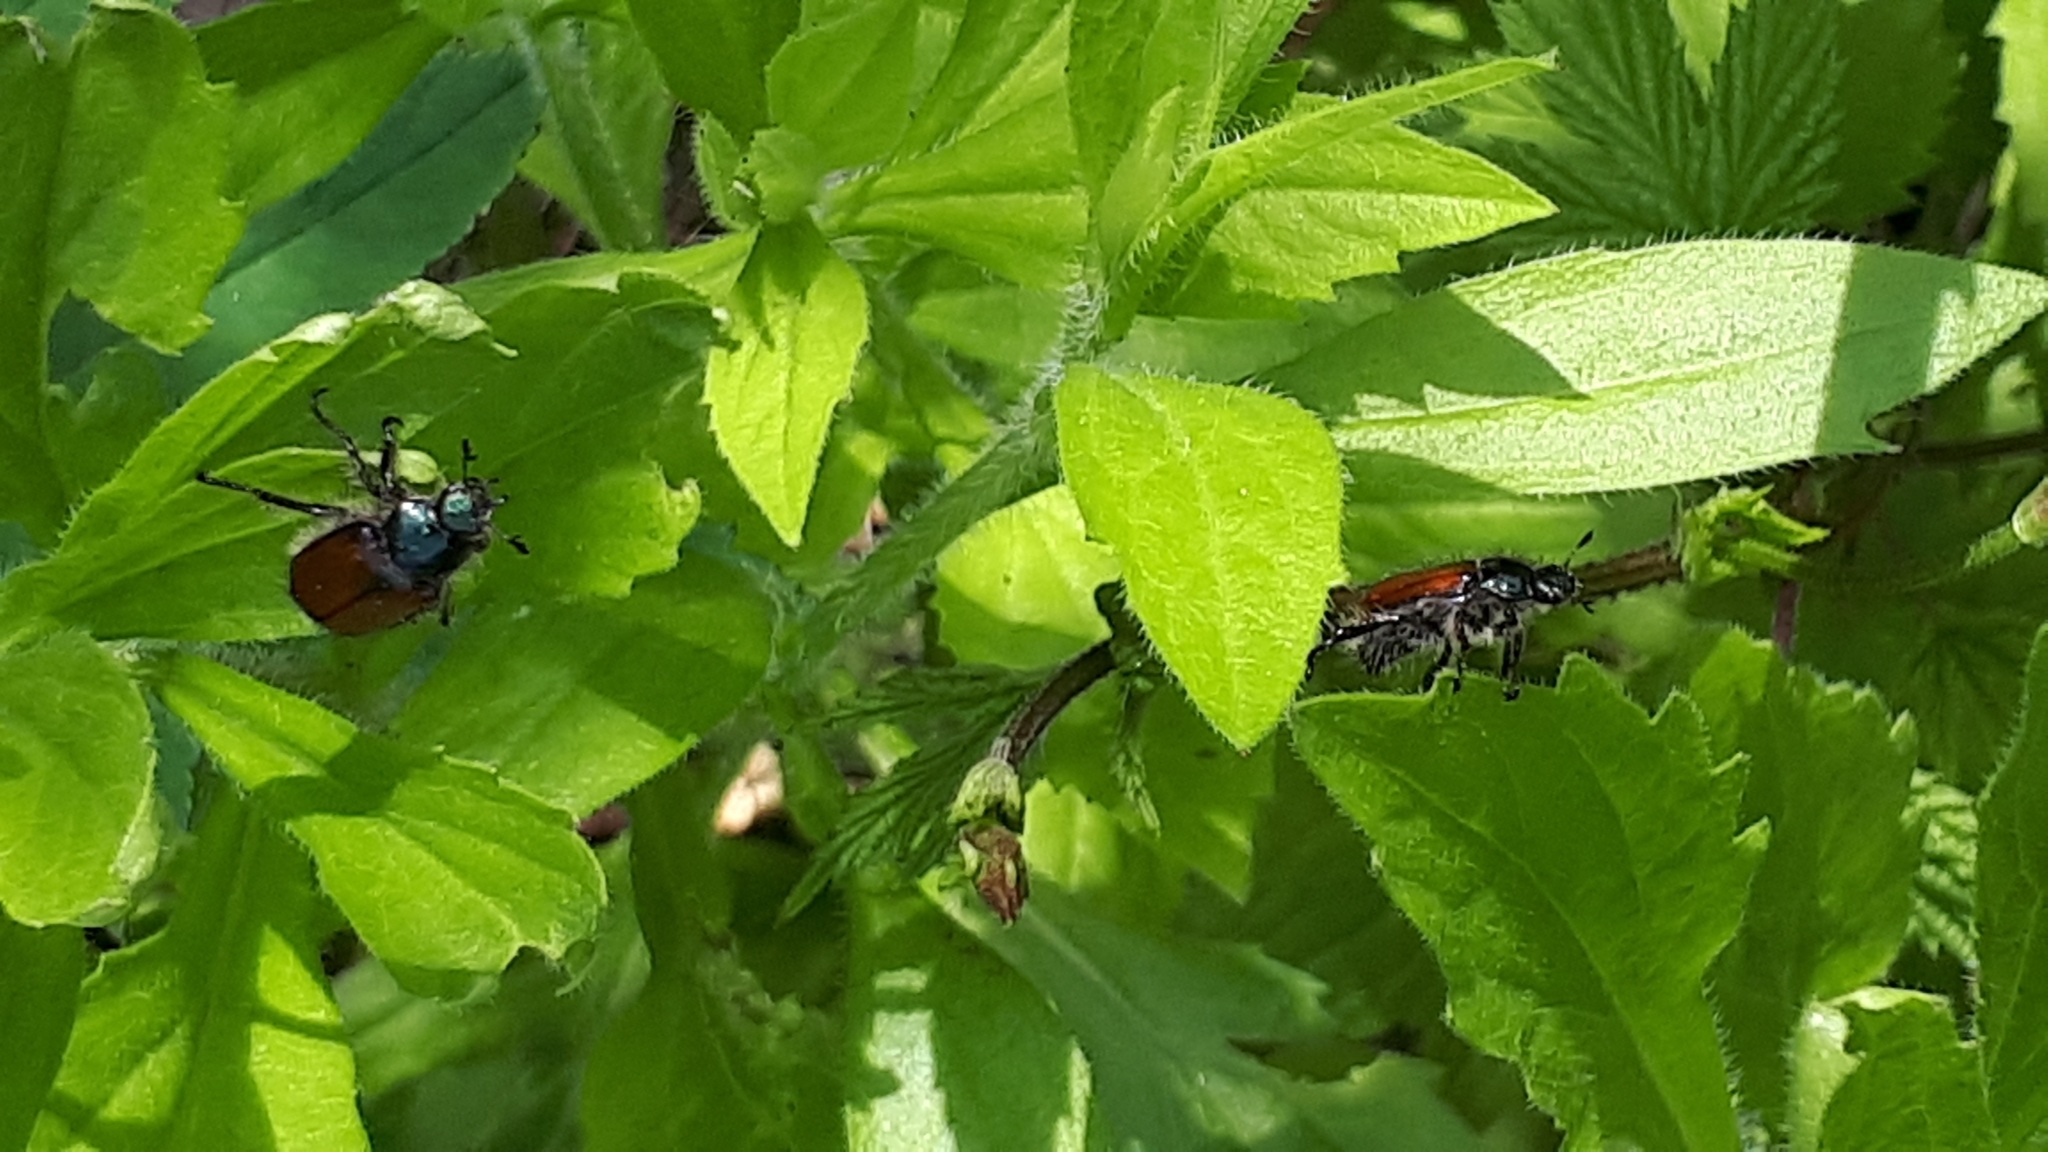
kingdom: Animalia
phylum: Arthropoda
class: Insecta
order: Coleoptera
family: Scarabaeidae
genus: Phyllopertha
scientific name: Phyllopertha horticola
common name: Garden chafer
